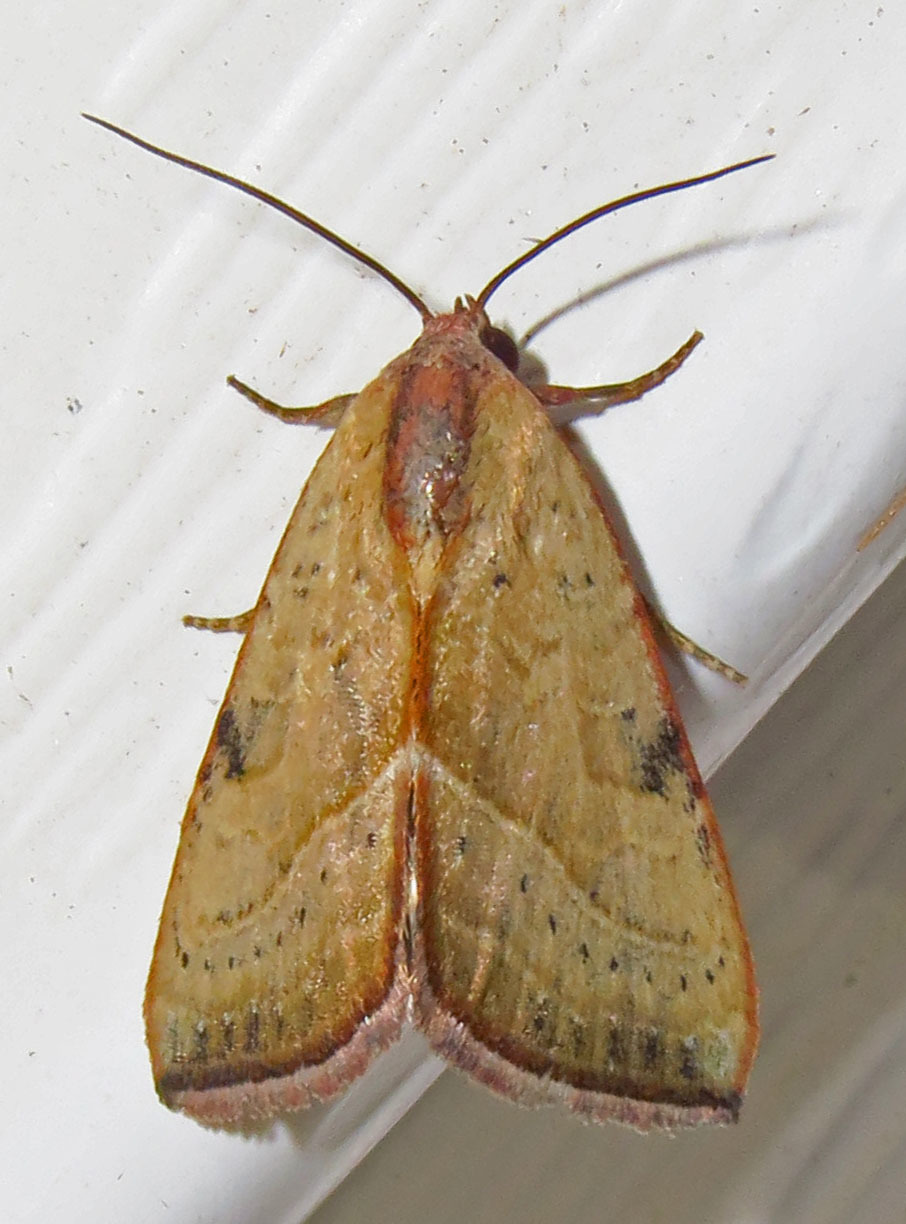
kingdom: Animalia
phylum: Arthropoda
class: Insecta
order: Lepidoptera
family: Noctuidae
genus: Galgula
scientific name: Galgula partita
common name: Wedgeling
